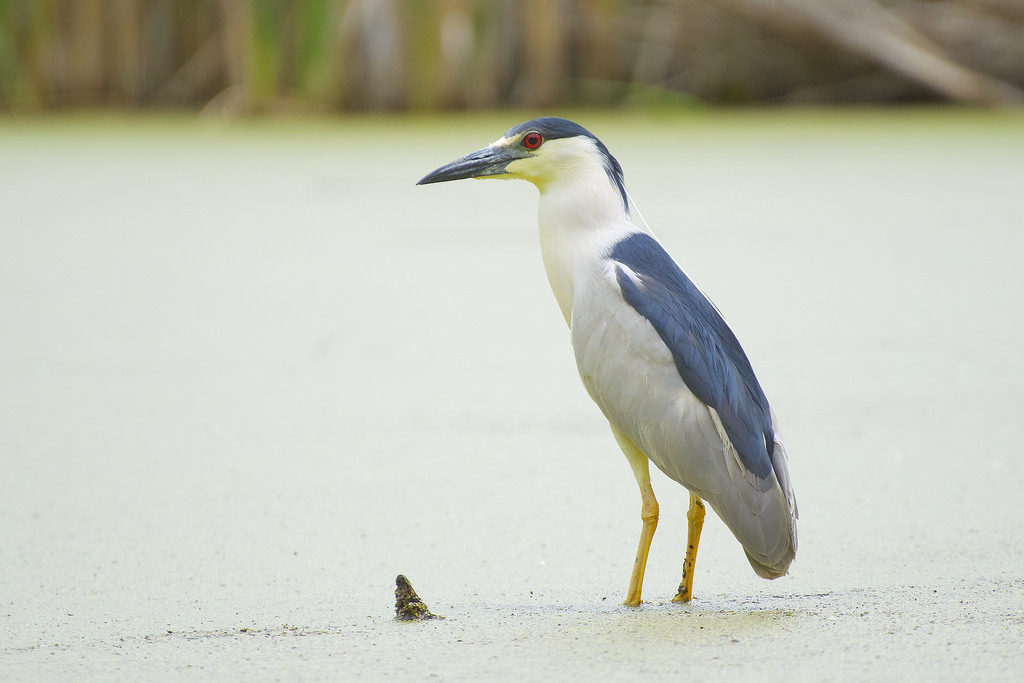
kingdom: Animalia
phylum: Chordata
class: Aves
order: Pelecaniformes
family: Ardeidae
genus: Nycticorax
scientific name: Nycticorax nycticorax
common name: Black-crowned night heron
